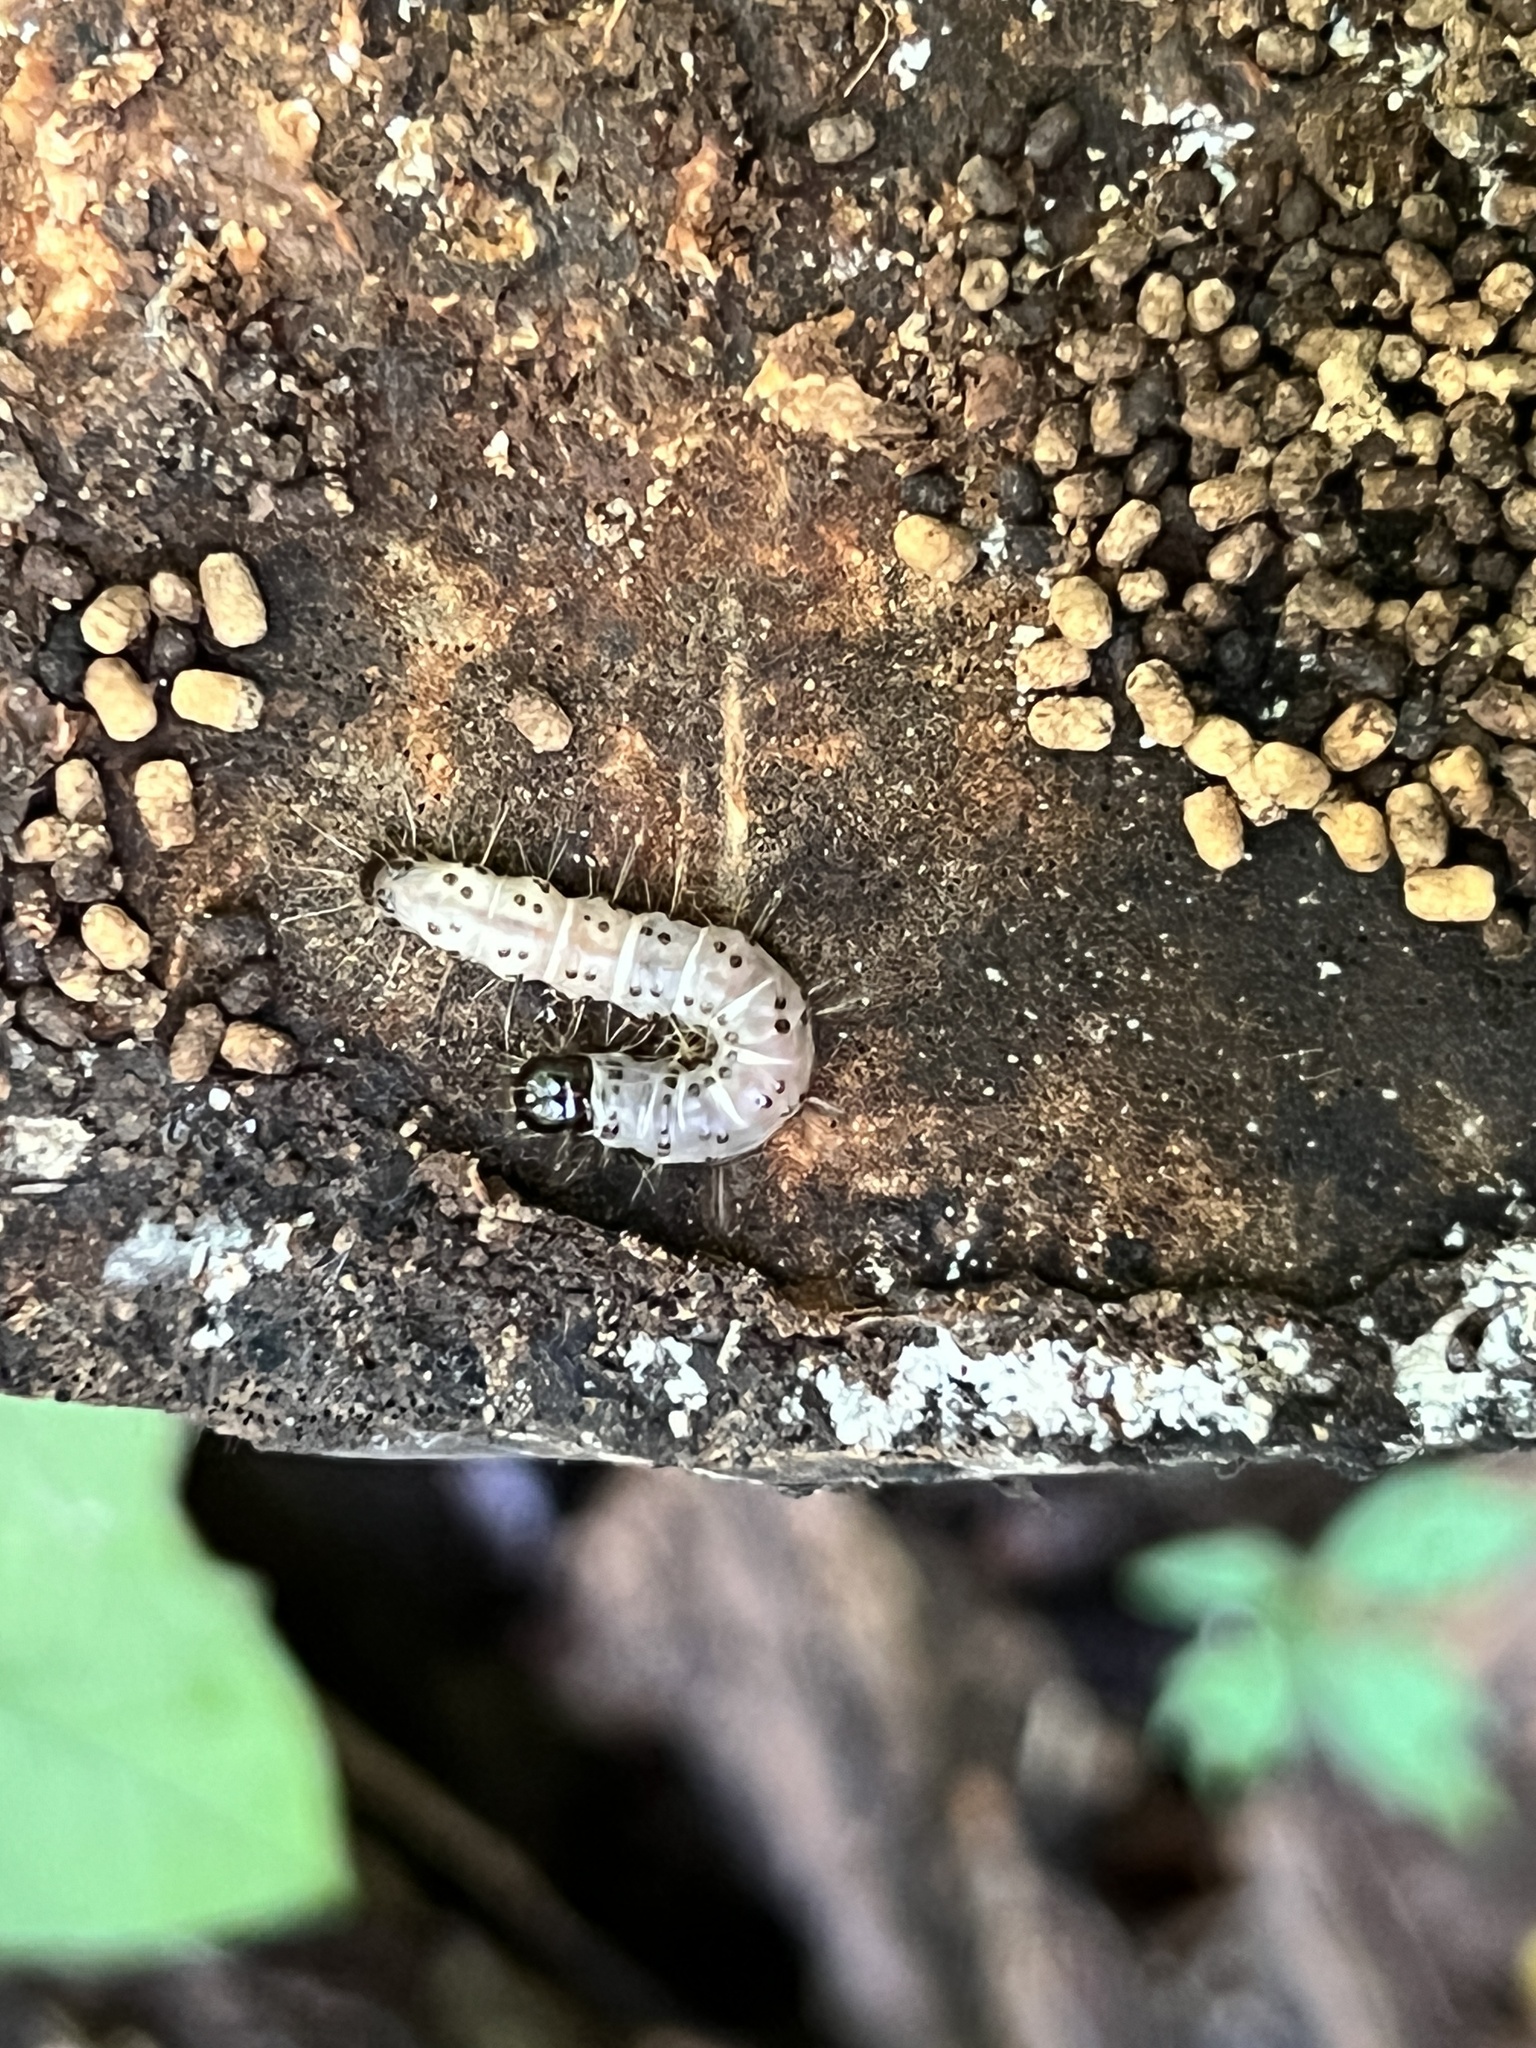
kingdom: Animalia
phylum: Arthropoda
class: Insecta
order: Lepidoptera
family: Erebidae
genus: Scolecocampa
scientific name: Scolecocampa liburna
